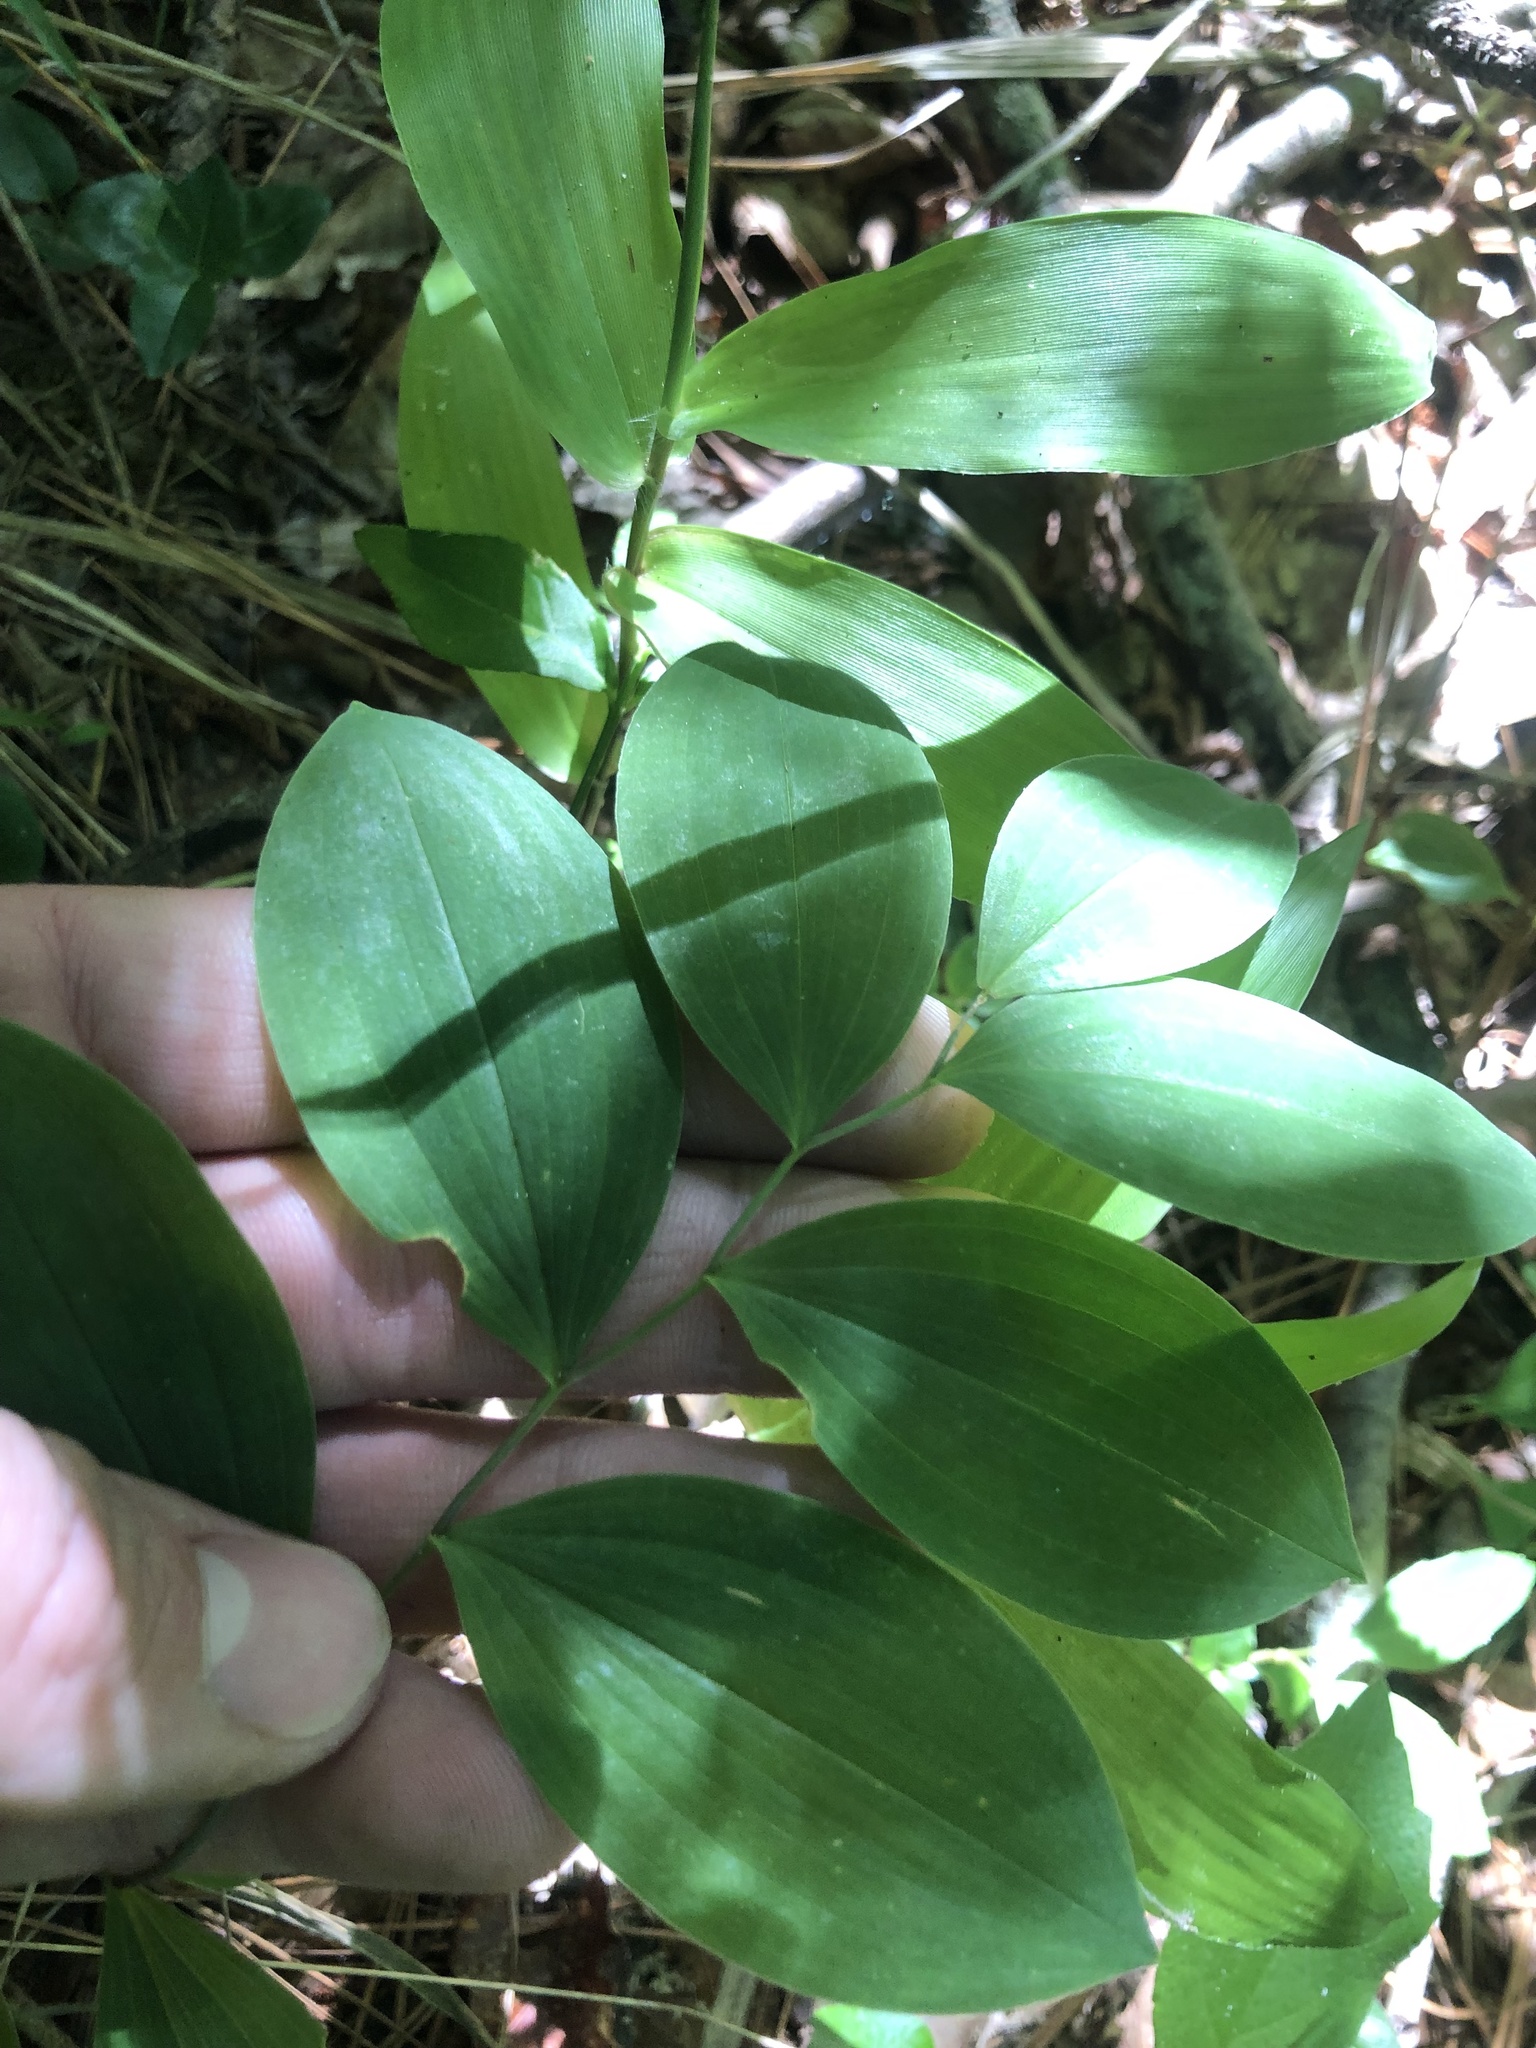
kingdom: Plantae
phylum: Tracheophyta
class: Liliopsida
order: Liliales
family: Colchicaceae
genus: Uvularia
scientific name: Uvularia sessilifolia
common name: Straw-lily
